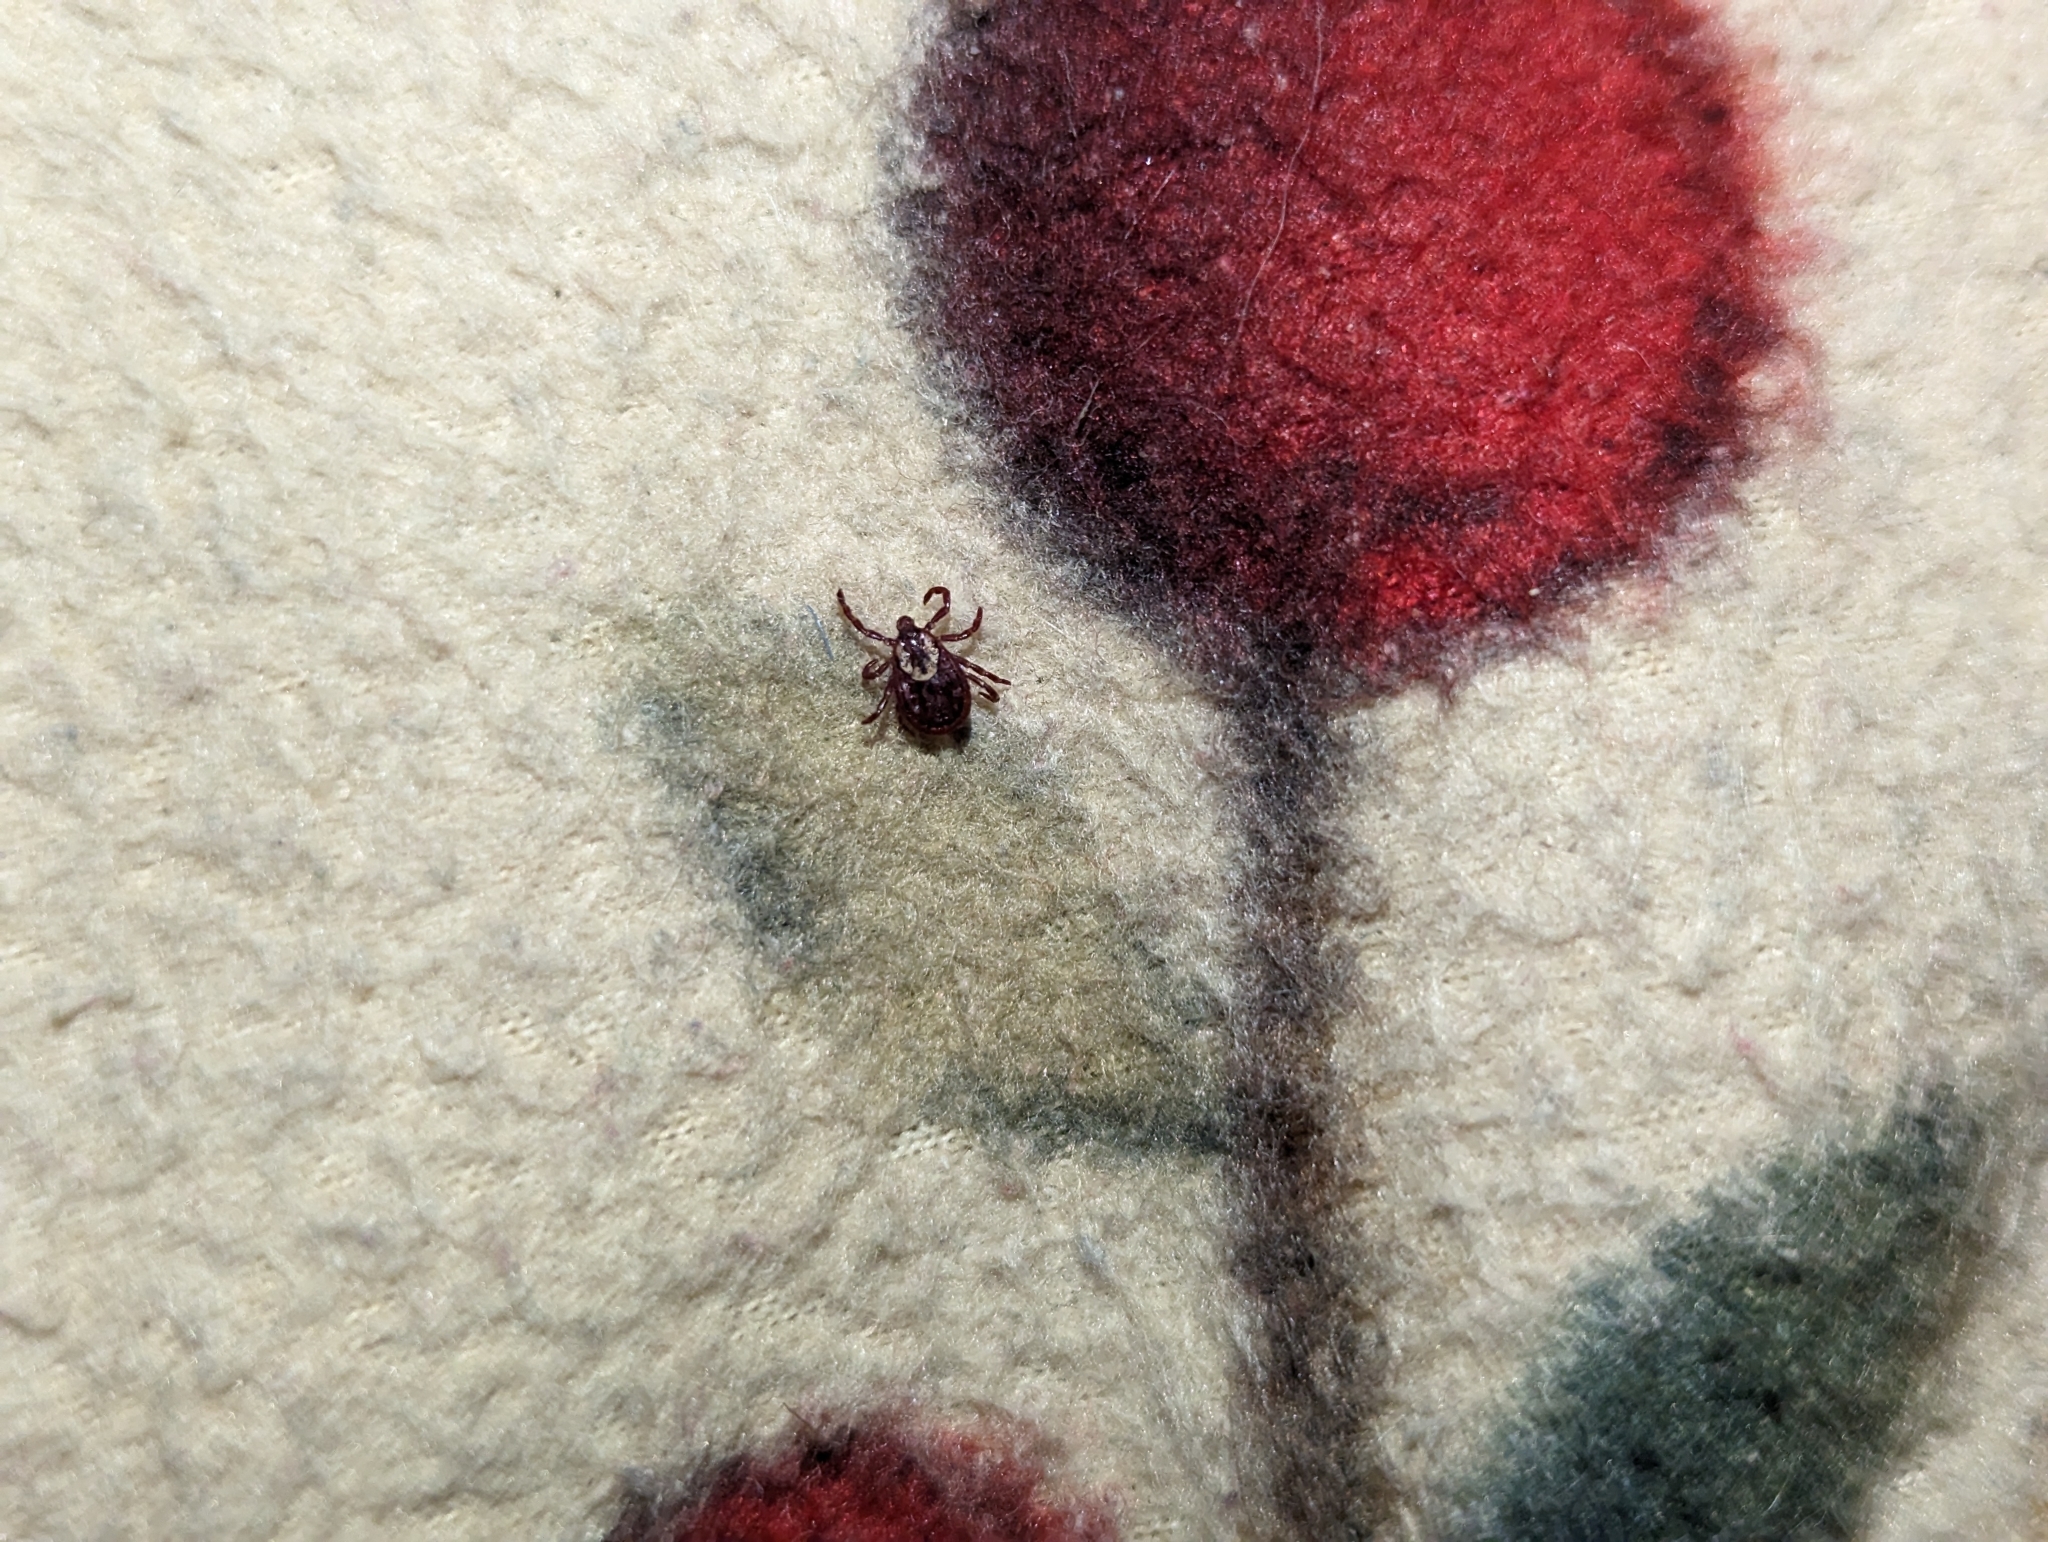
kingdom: Animalia
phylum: Arthropoda
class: Arachnida
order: Ixodida
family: Ixodidae
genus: Dermacentor
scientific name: Dermacentor variabilis
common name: American dog tick
